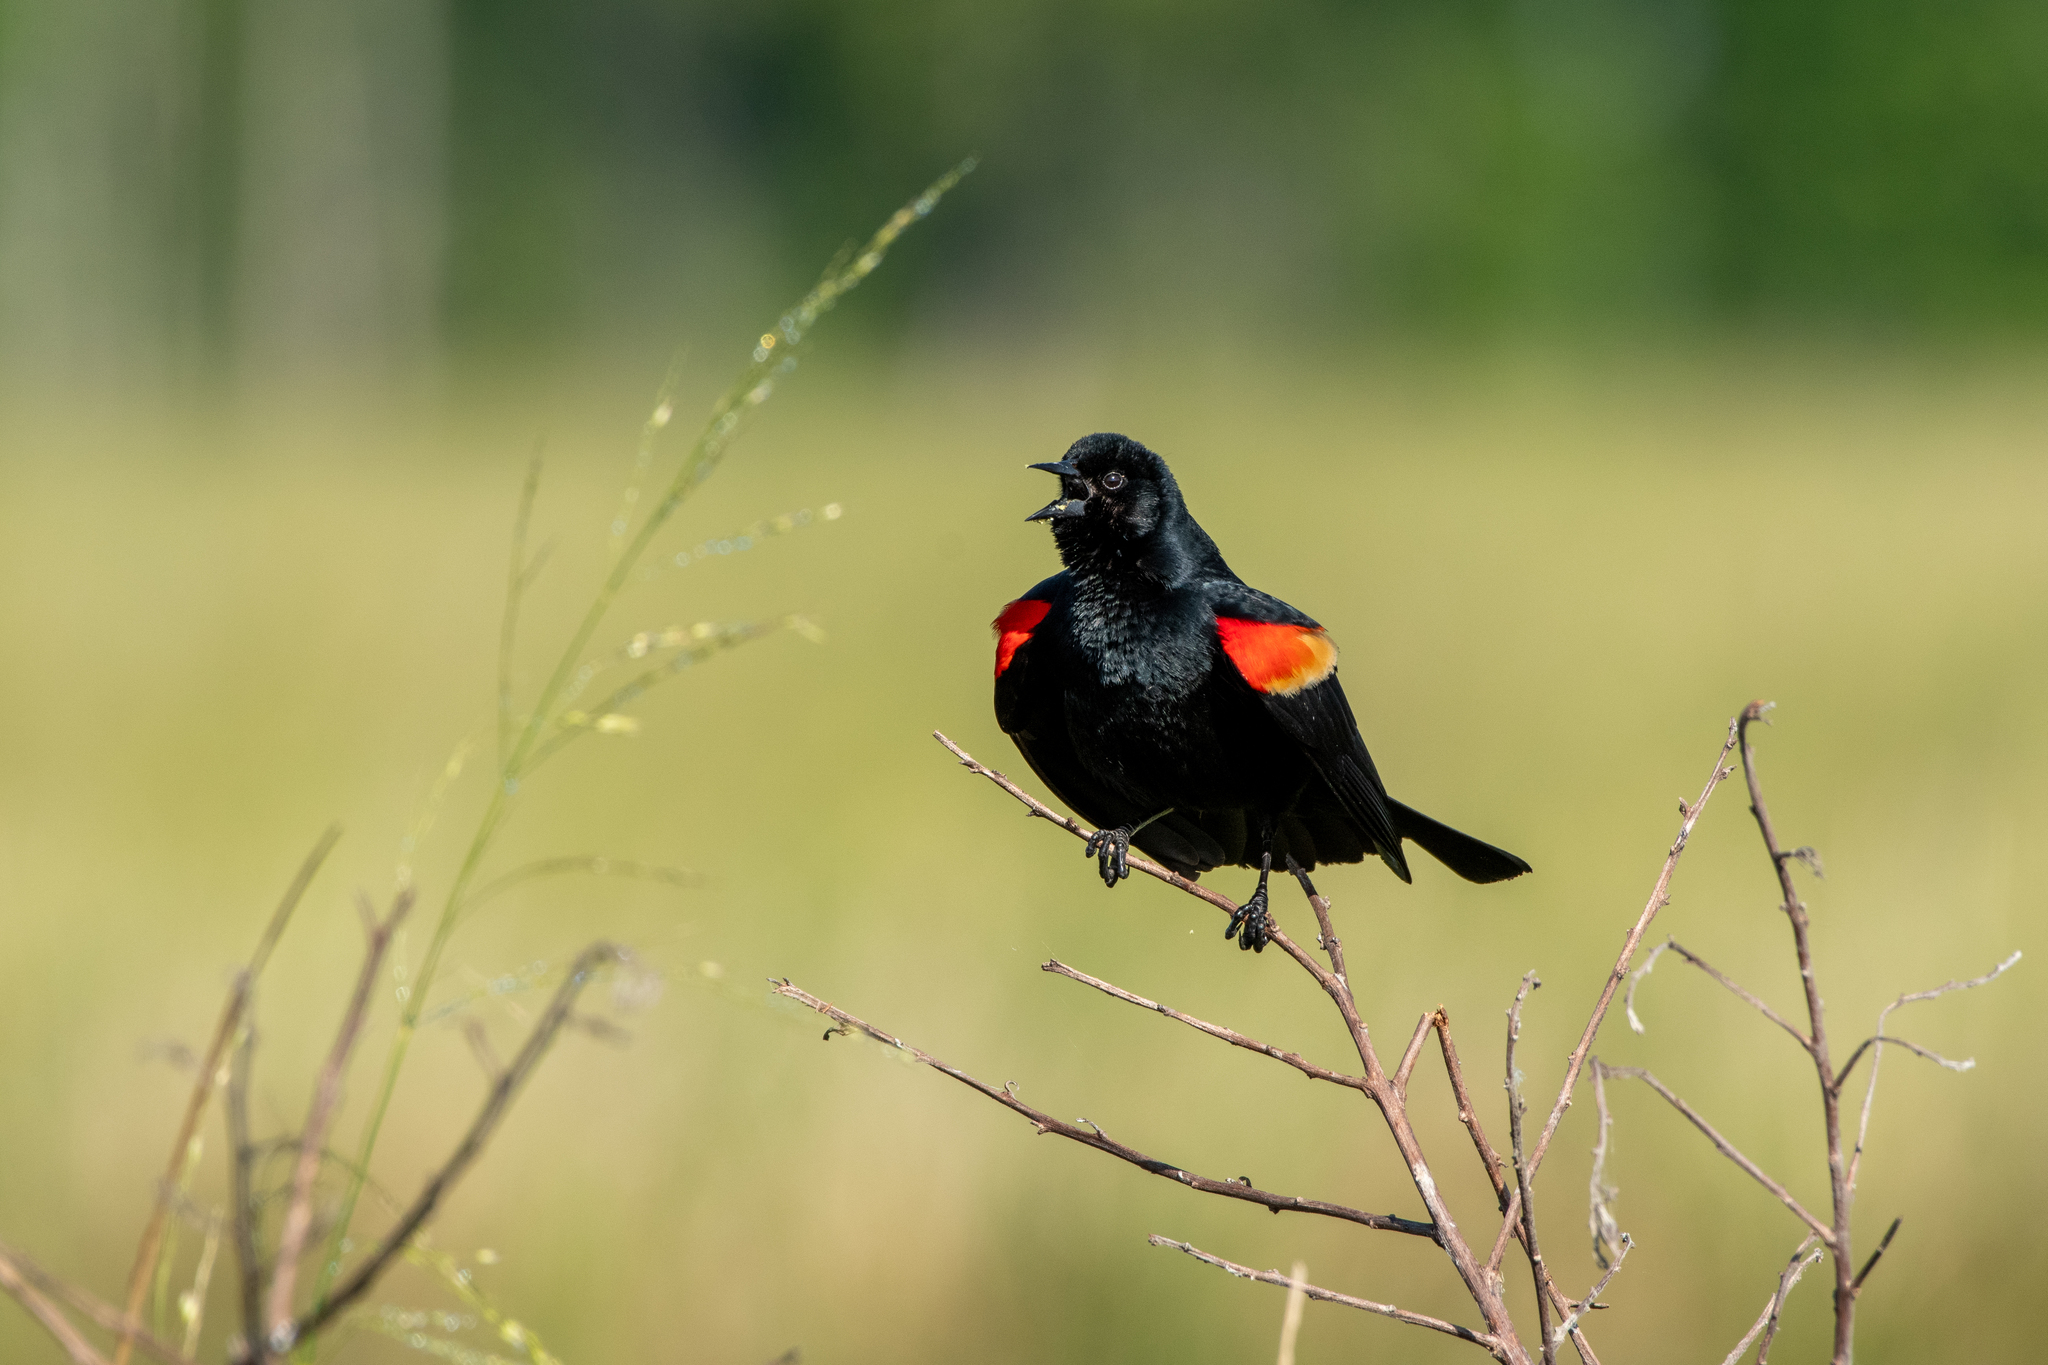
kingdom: Animalia
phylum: Chordata
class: Aves
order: Passeriformes
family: Icteridae
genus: Agelaius
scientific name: Agelaius phoeniceus
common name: Red-winged blackbird
